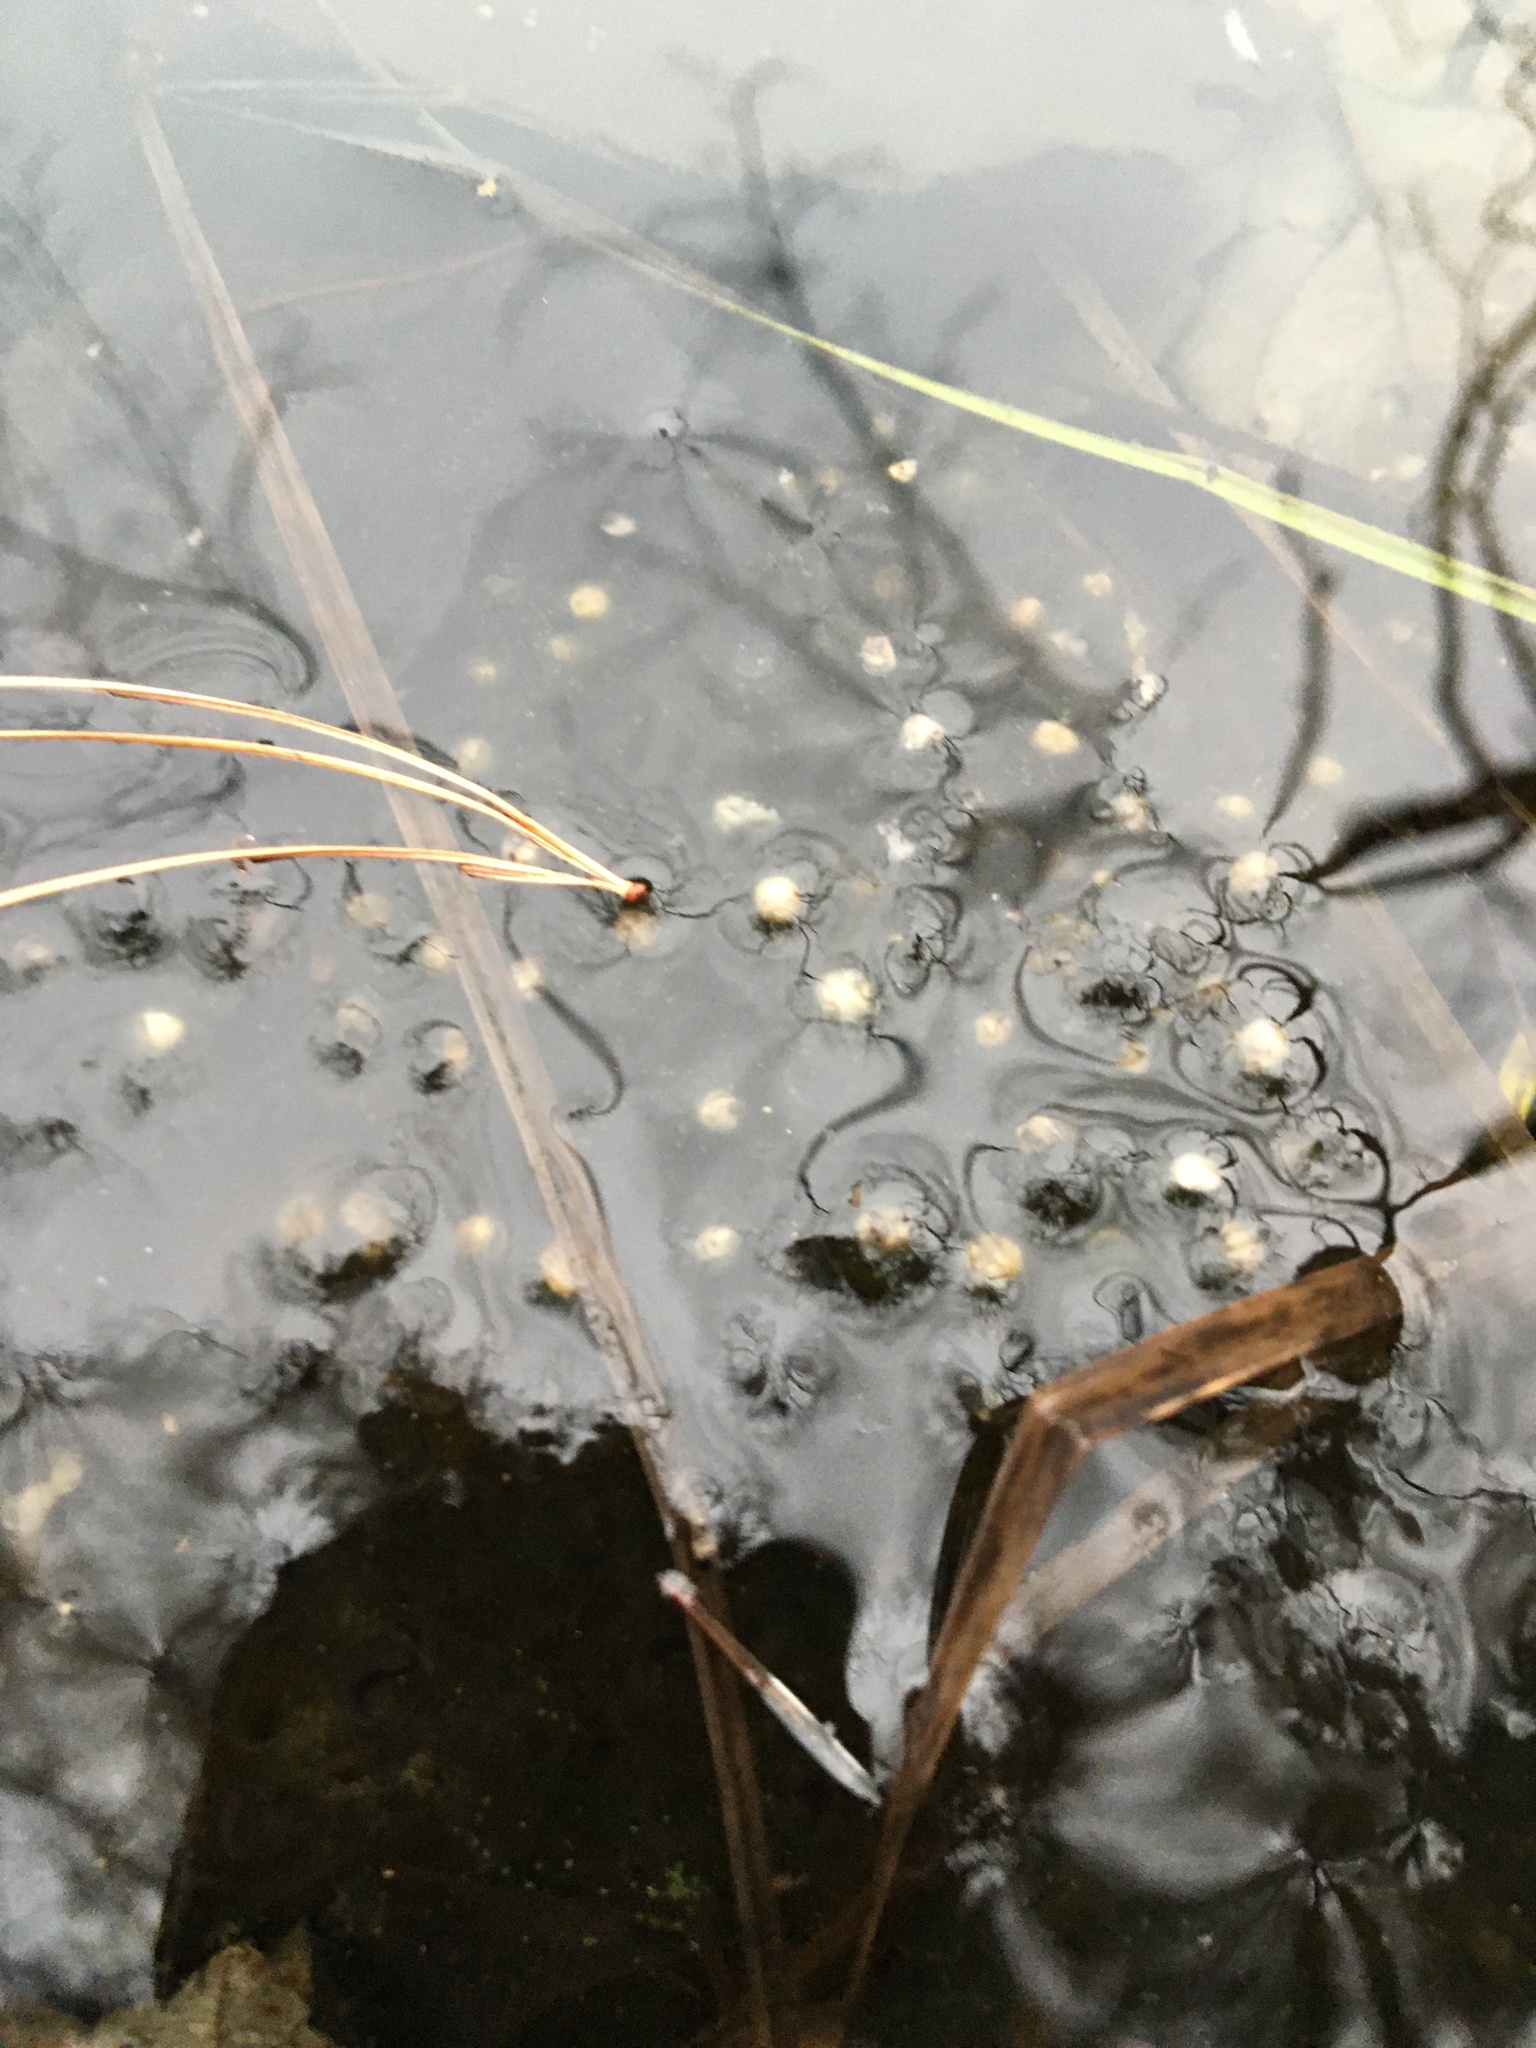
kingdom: Animalia
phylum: Chordata
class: Amphibia
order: Caudata
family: Ambystomatidae
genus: Ambystoma
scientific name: Ambystoma maculatum
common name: Spotted salamander
